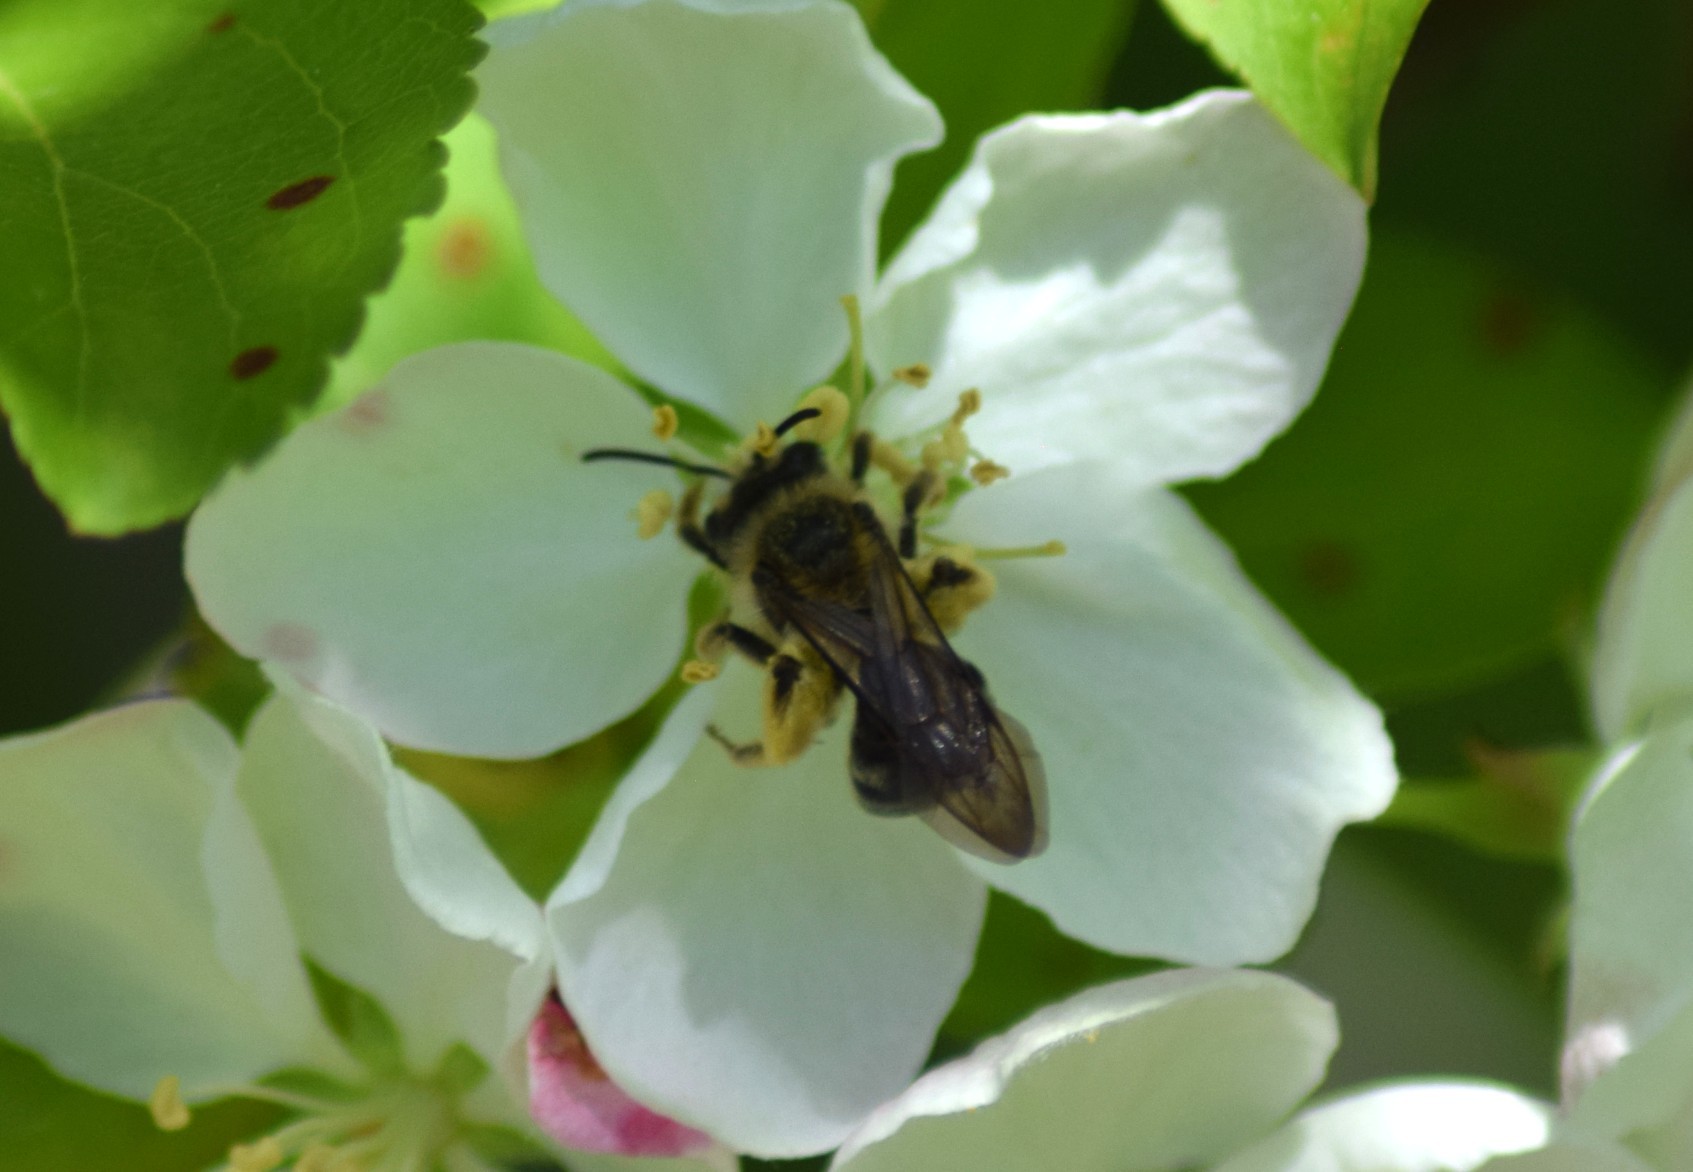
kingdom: Animalia
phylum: Arthropoda
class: Insecta
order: Hymenoptera
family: Andrenidae
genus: Andrena
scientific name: Andrena
